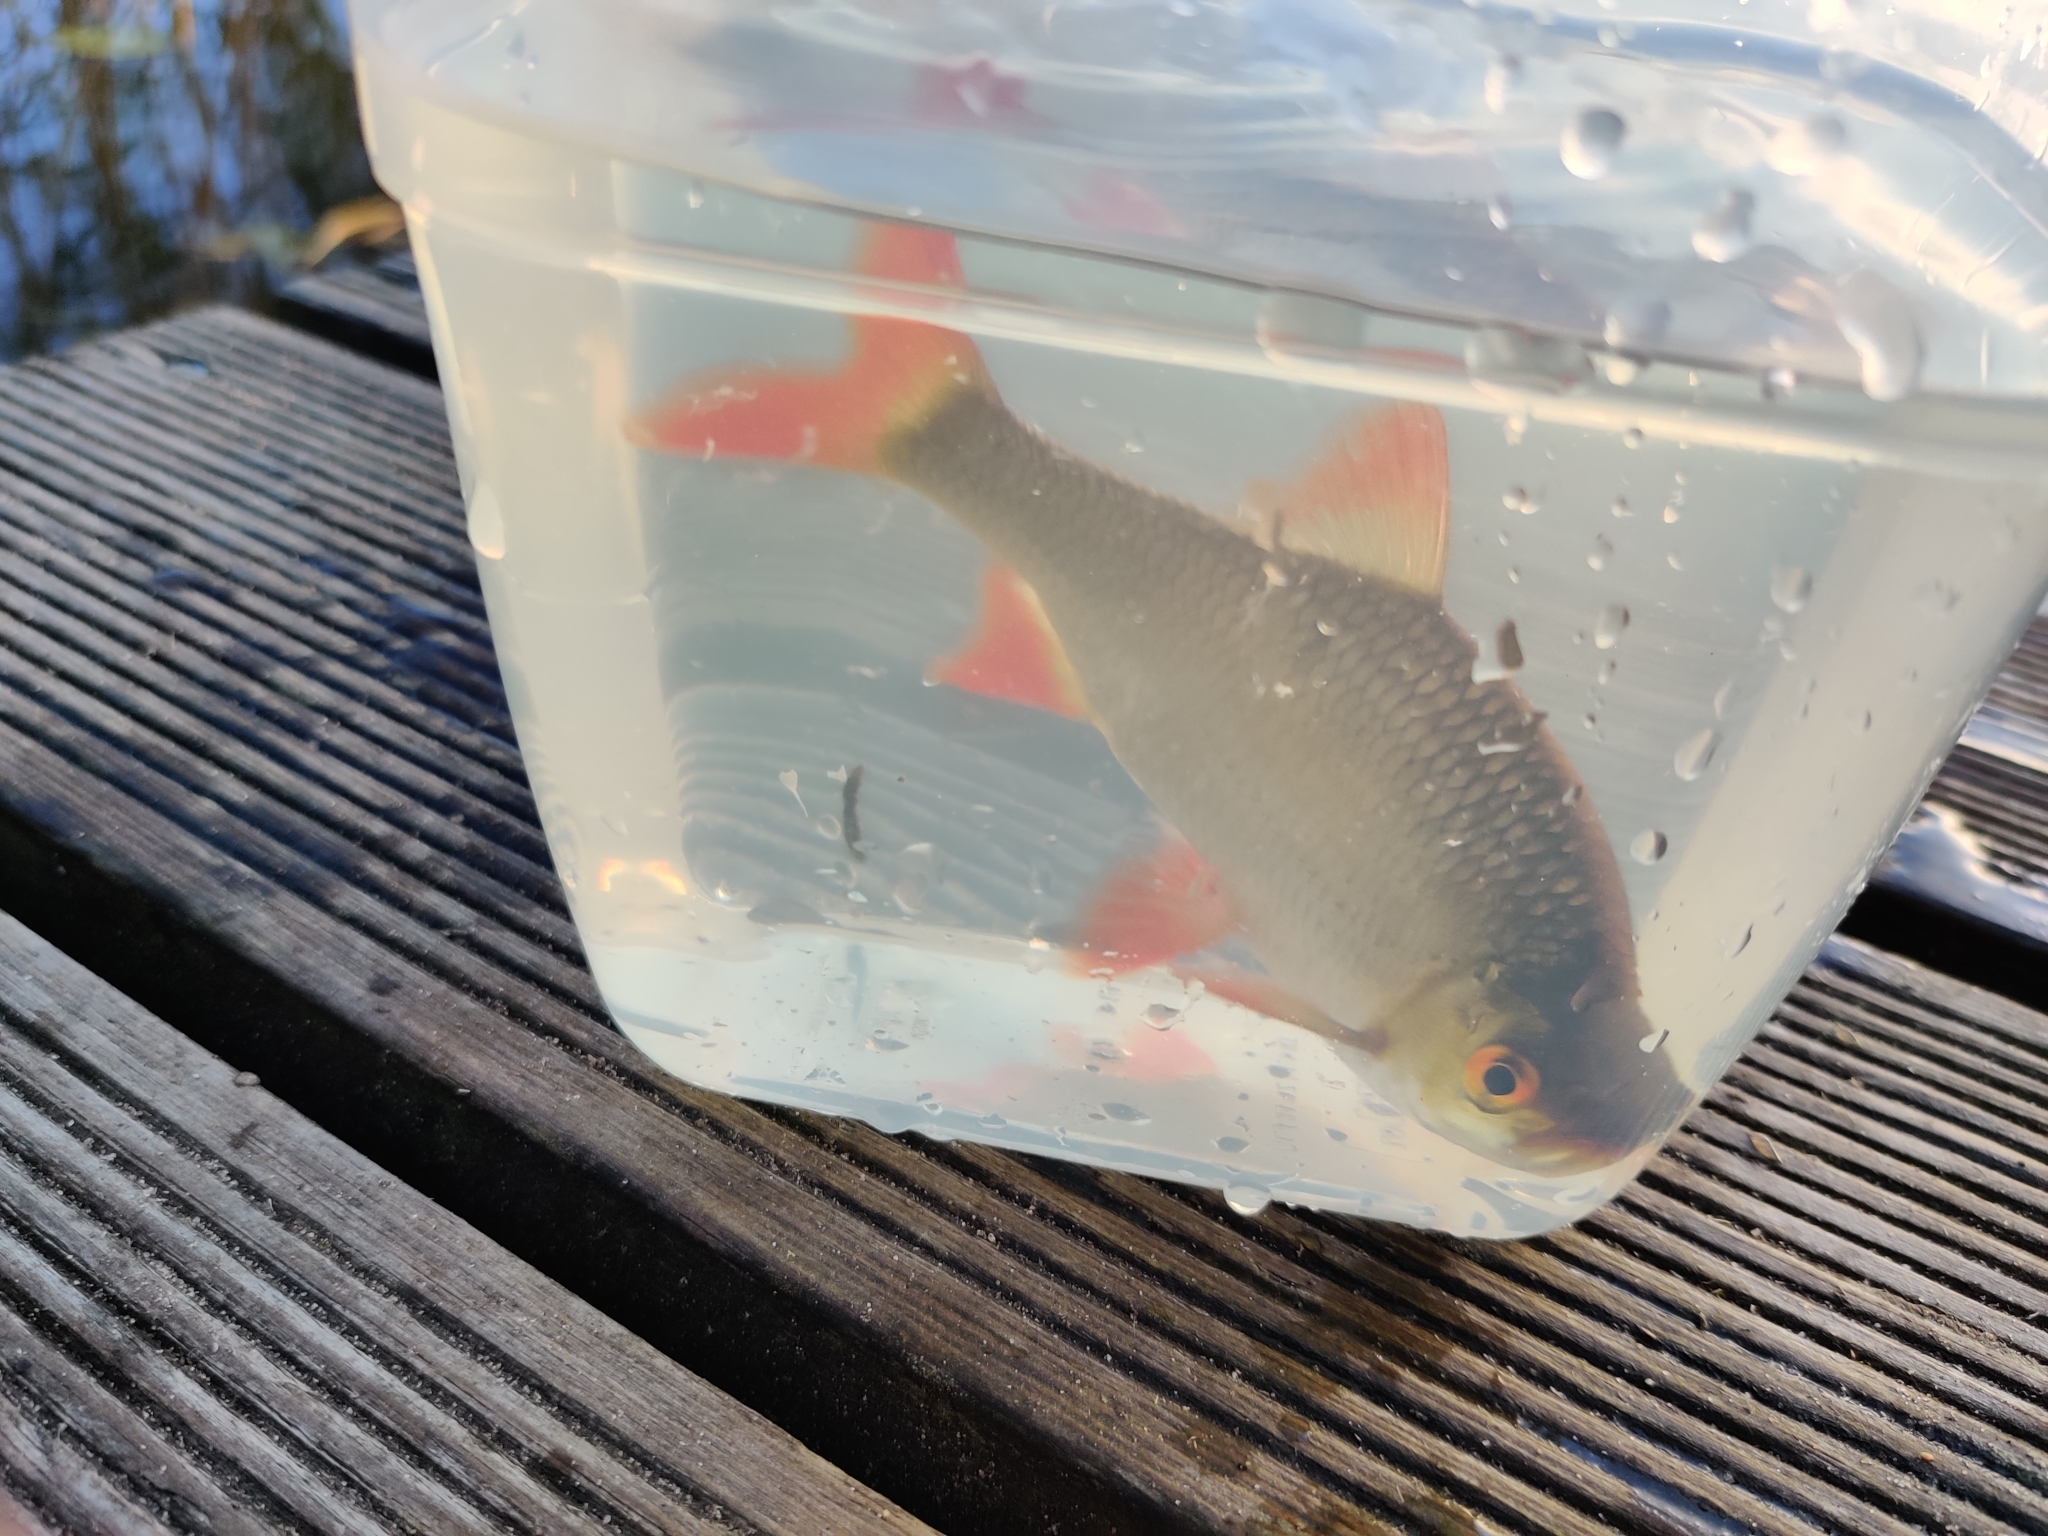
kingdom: Animalia
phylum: Chordata
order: Cypriniformes
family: Cyprinidae
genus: Scardinius
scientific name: Scardinius erythrophthalmus
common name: Rudd
